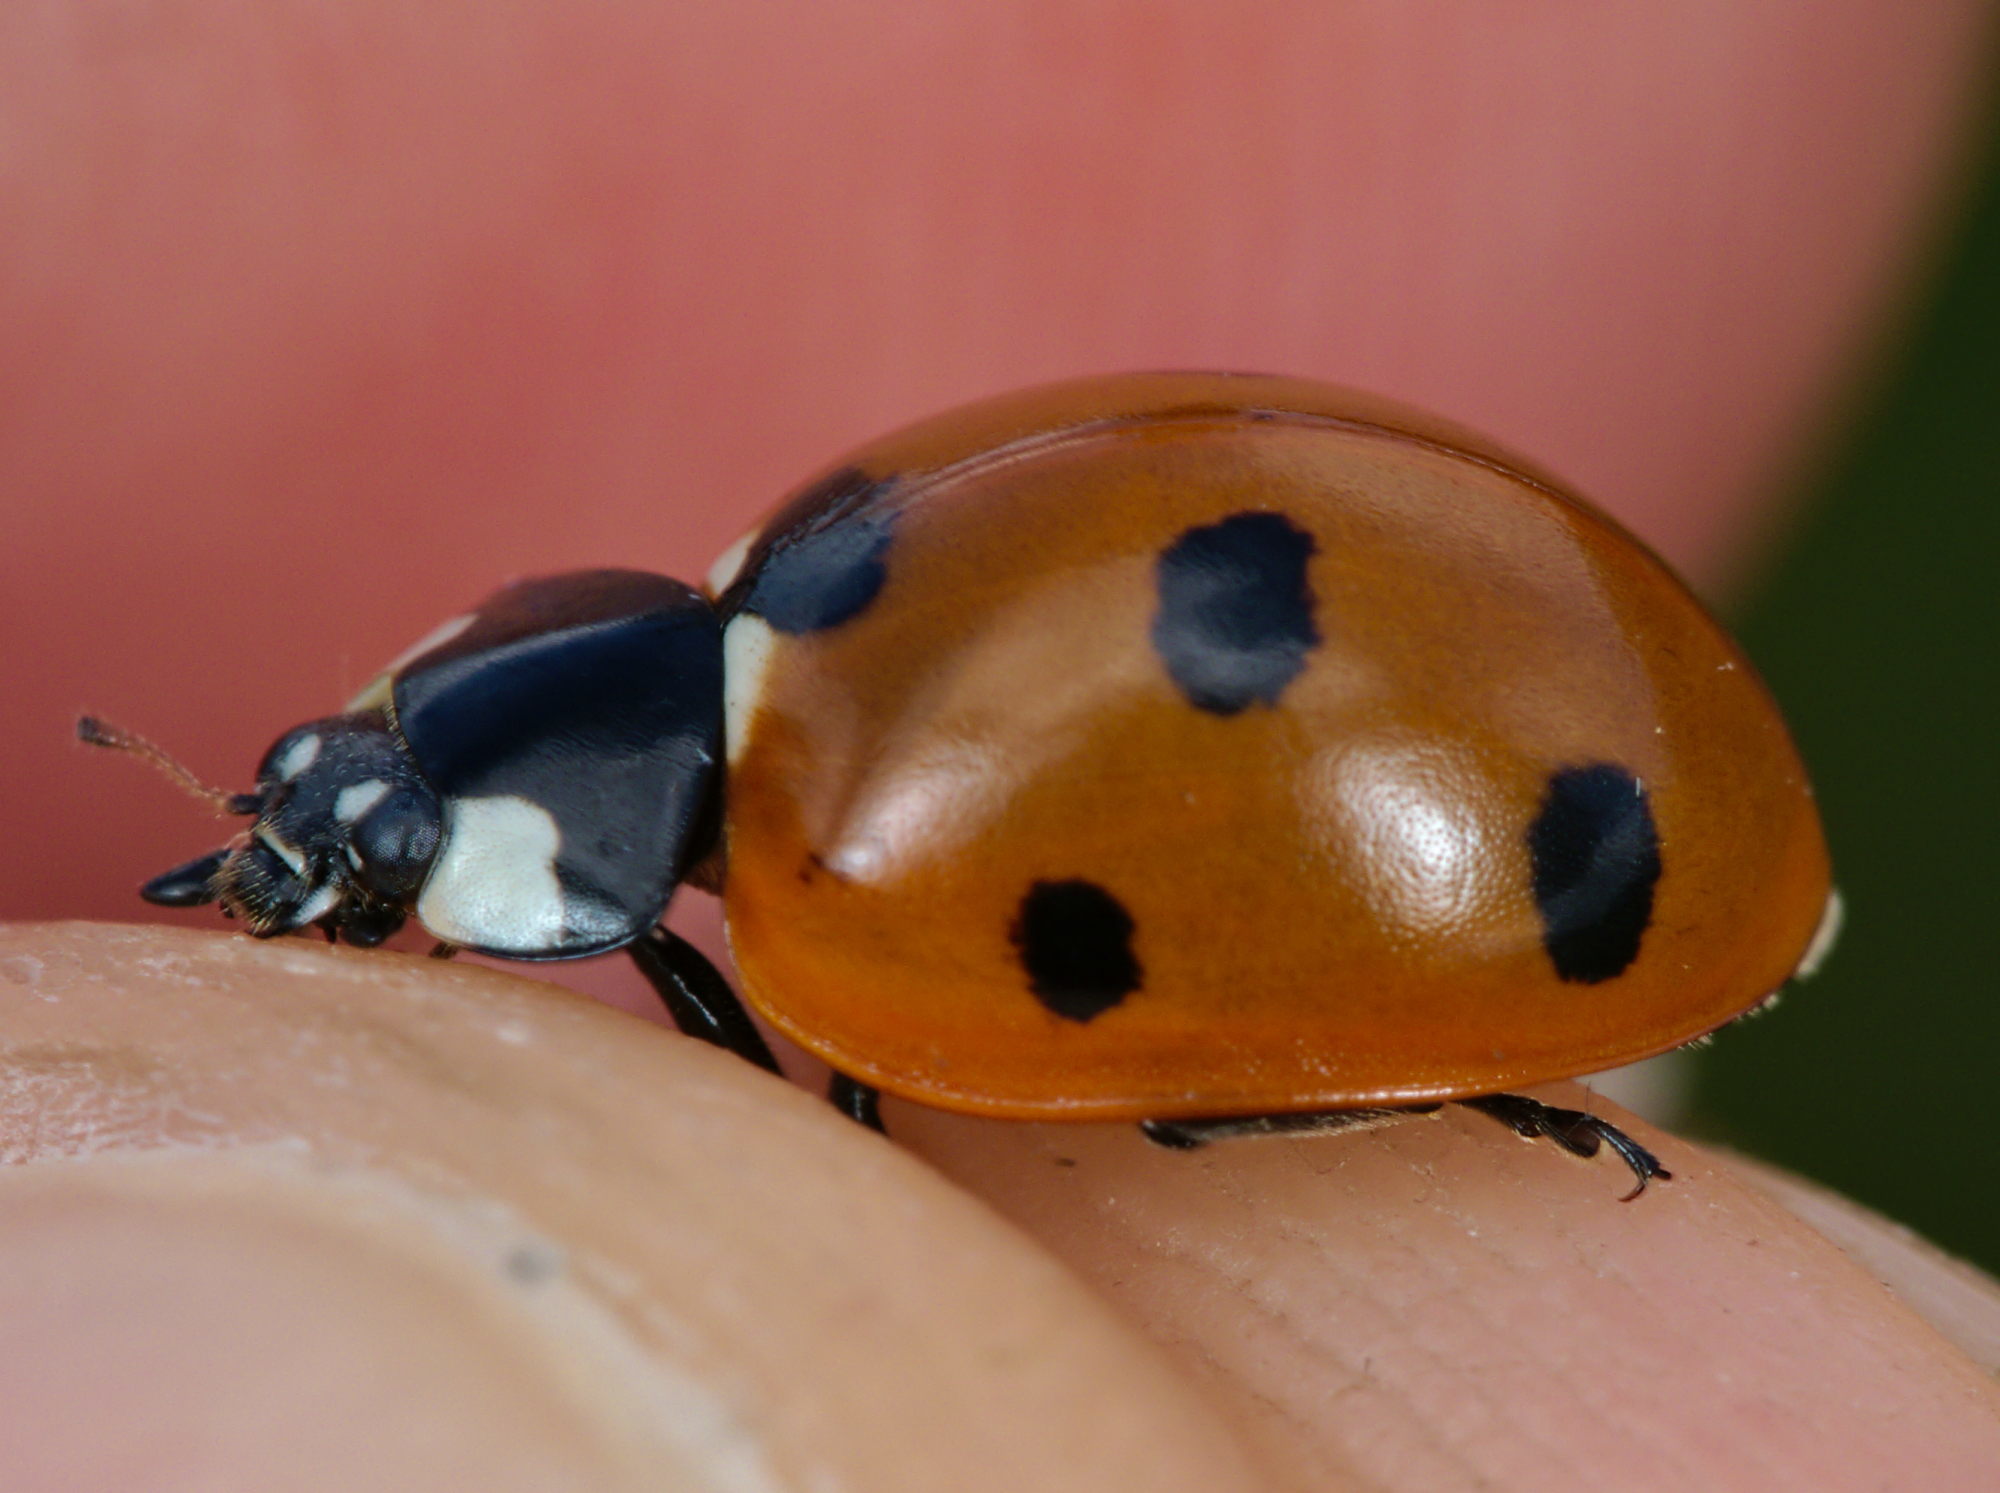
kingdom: Animalia
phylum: Arthropoda
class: Insecta
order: Coleoptera
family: Coccinellidae
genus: Coccinella
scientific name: Coccinella septempunctata
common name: Sevenspotted lady beetle
